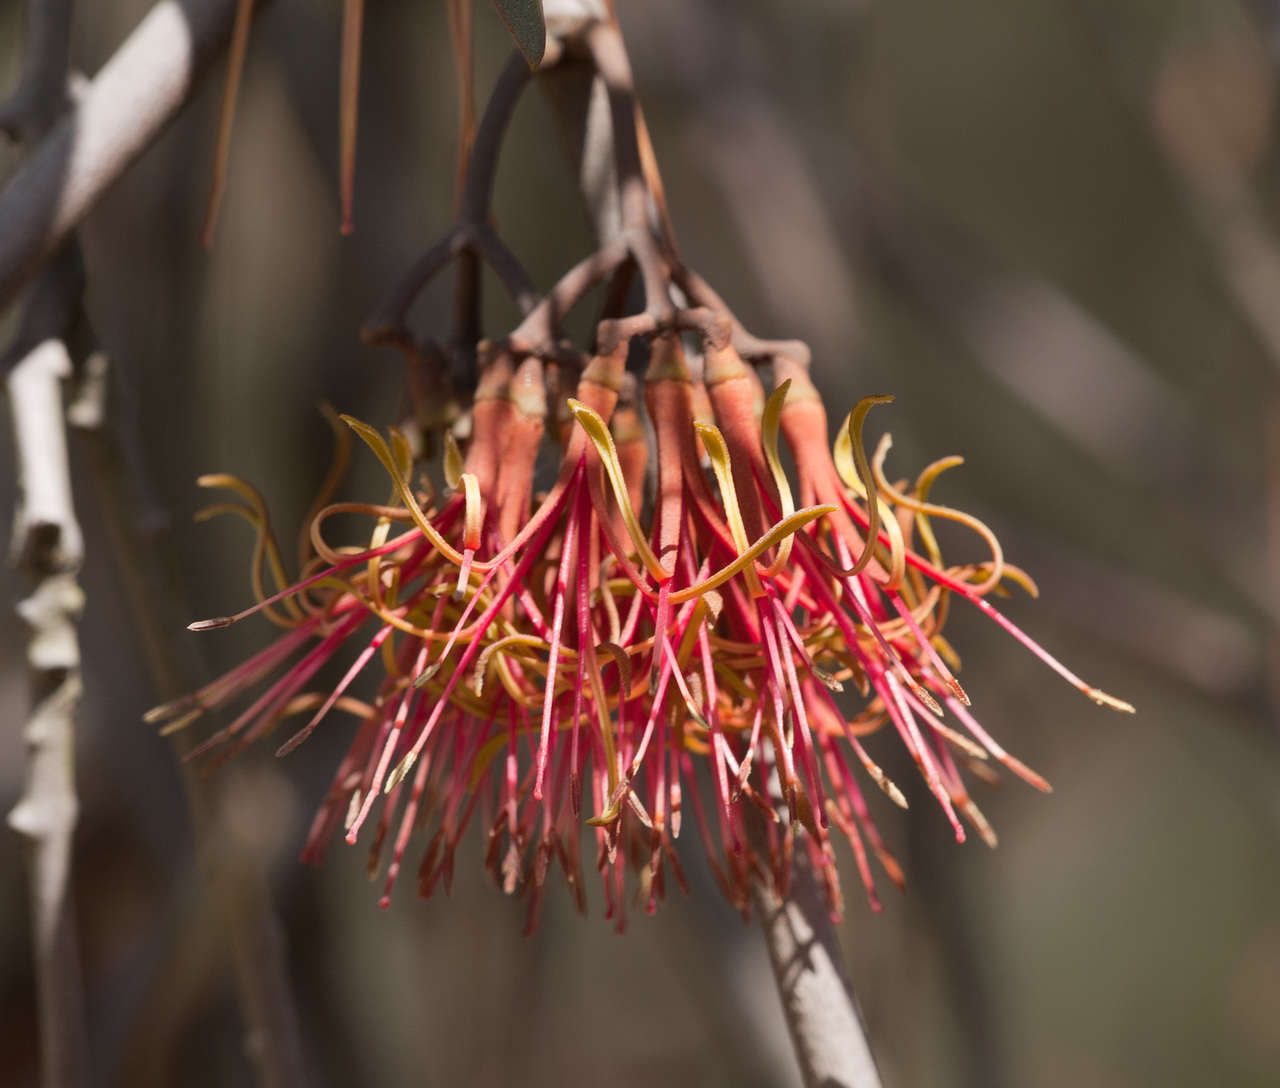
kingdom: Plantae
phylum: Tracheophyta
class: Magnoliopsida
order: Santalales
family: Loranthaceae
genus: Amyema
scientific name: Amyema pendula
